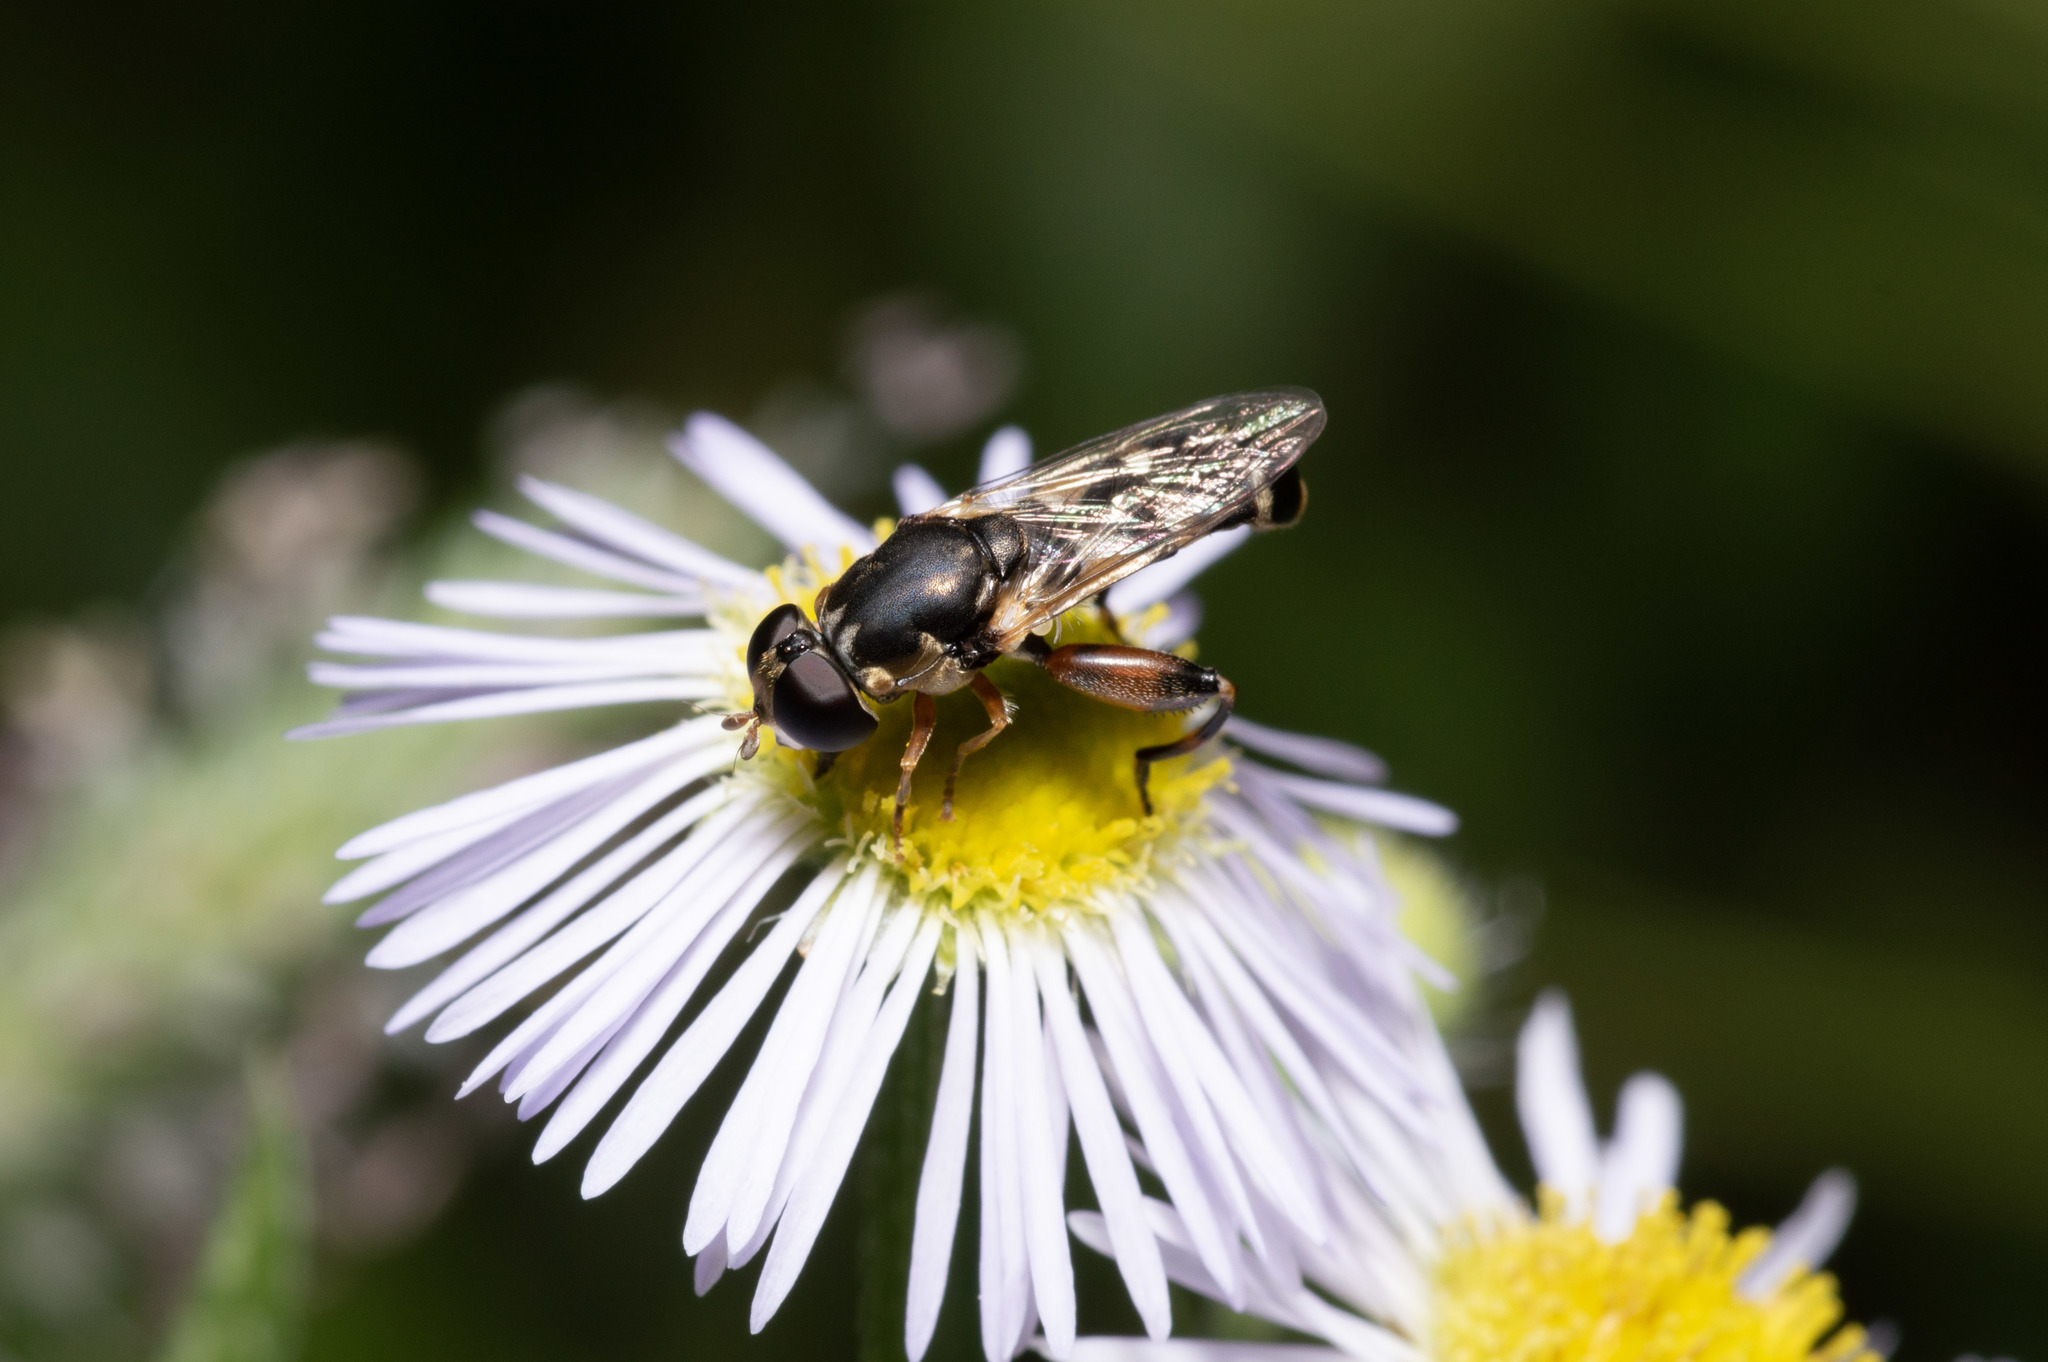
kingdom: Animalia
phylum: Arthropoda
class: Insecta
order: Diptera
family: Syrphidae
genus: Syritta
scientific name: Syritta pipiens
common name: Hover fly
